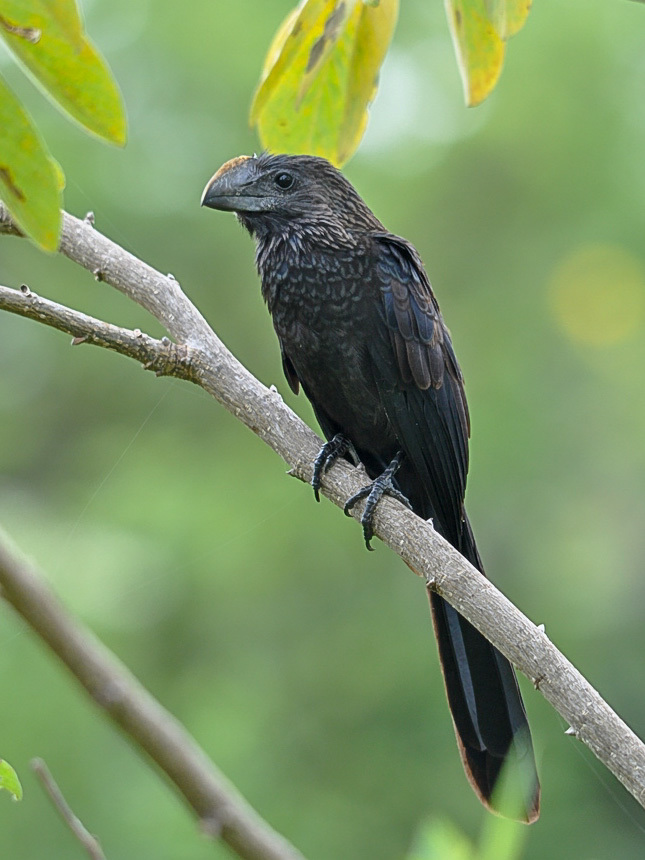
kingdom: Animalia
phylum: Chordata
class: Aves
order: Cuculiformes
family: Cuculidae
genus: Crotophaga
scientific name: Crotophaga ani
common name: Smooth-billed ani
